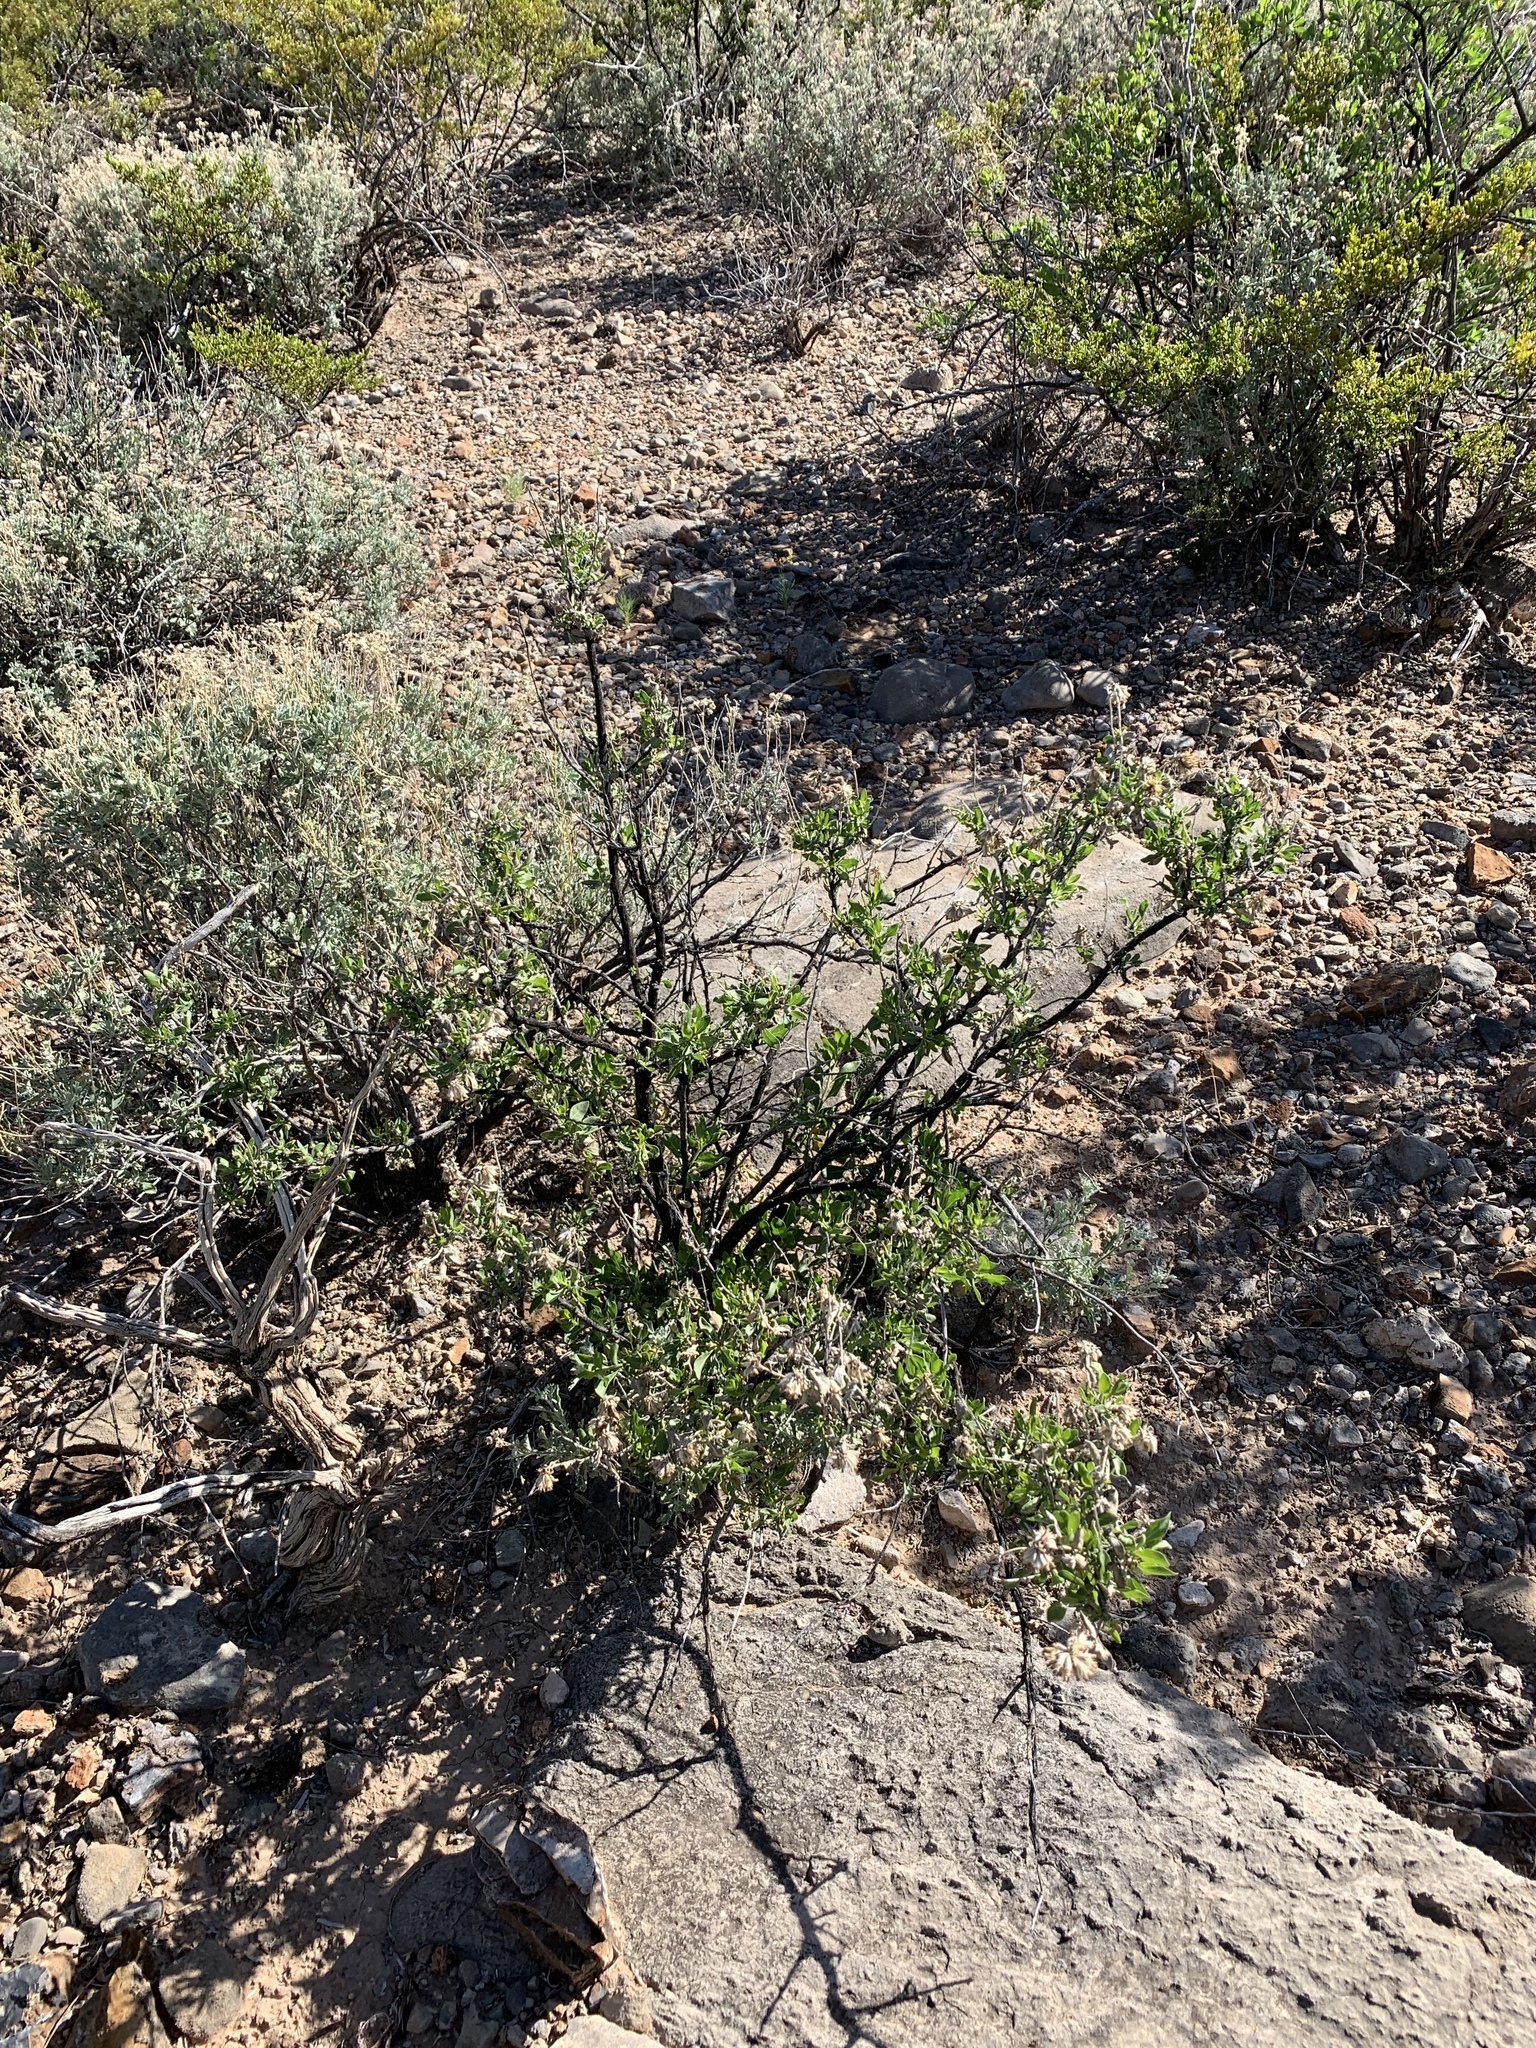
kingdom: Plantae
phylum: Tracheophyta
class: Magnoliopsida
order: Asterales
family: Asteraceae
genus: Flourensia
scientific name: Flourensia cernua
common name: Varnishbush
